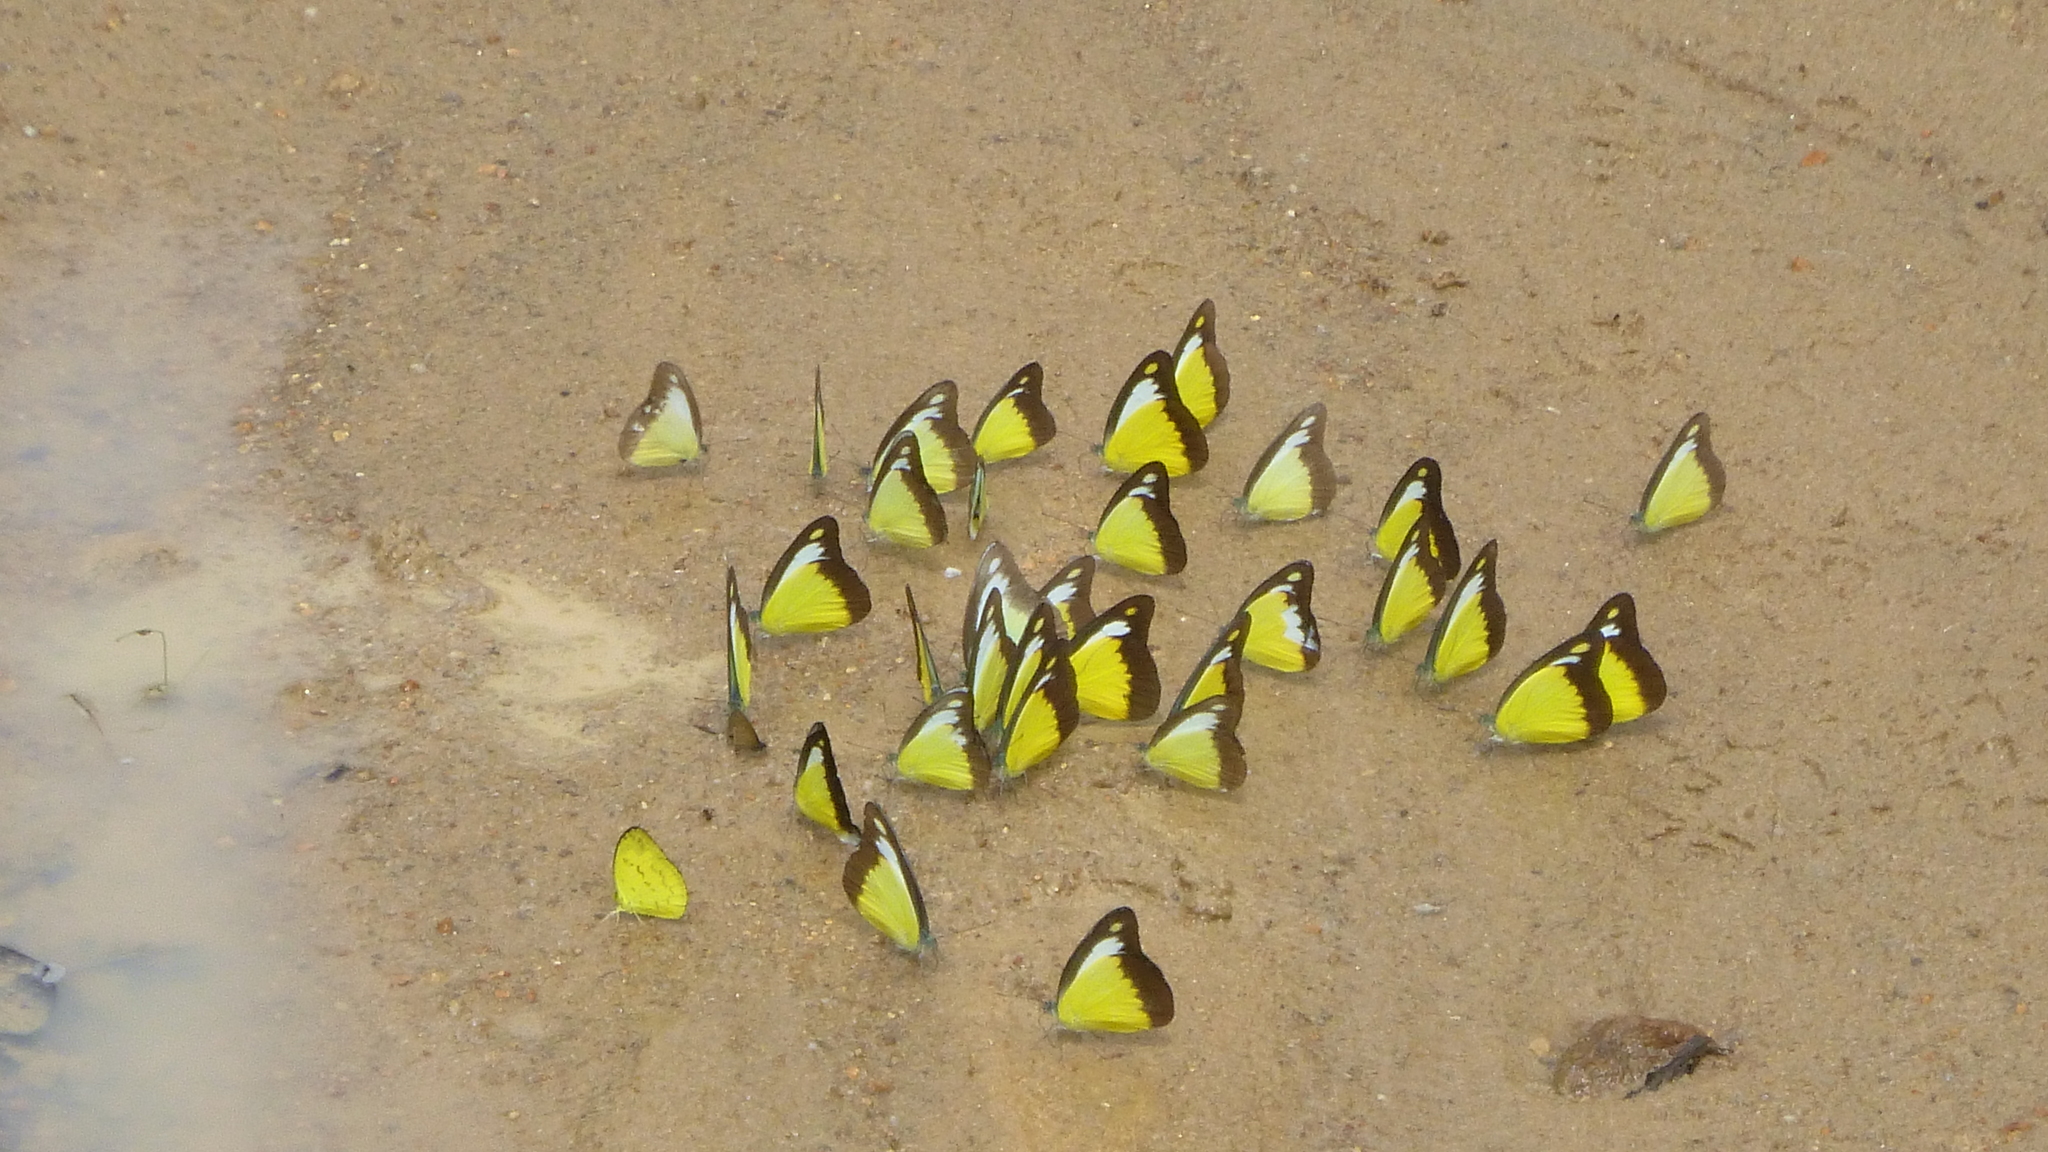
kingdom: Animalia
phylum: Arthropoda
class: Insecta
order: Lepidoptera
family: Pieridae
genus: Appias
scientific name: Appias lyncida
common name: Chocolate albatross
